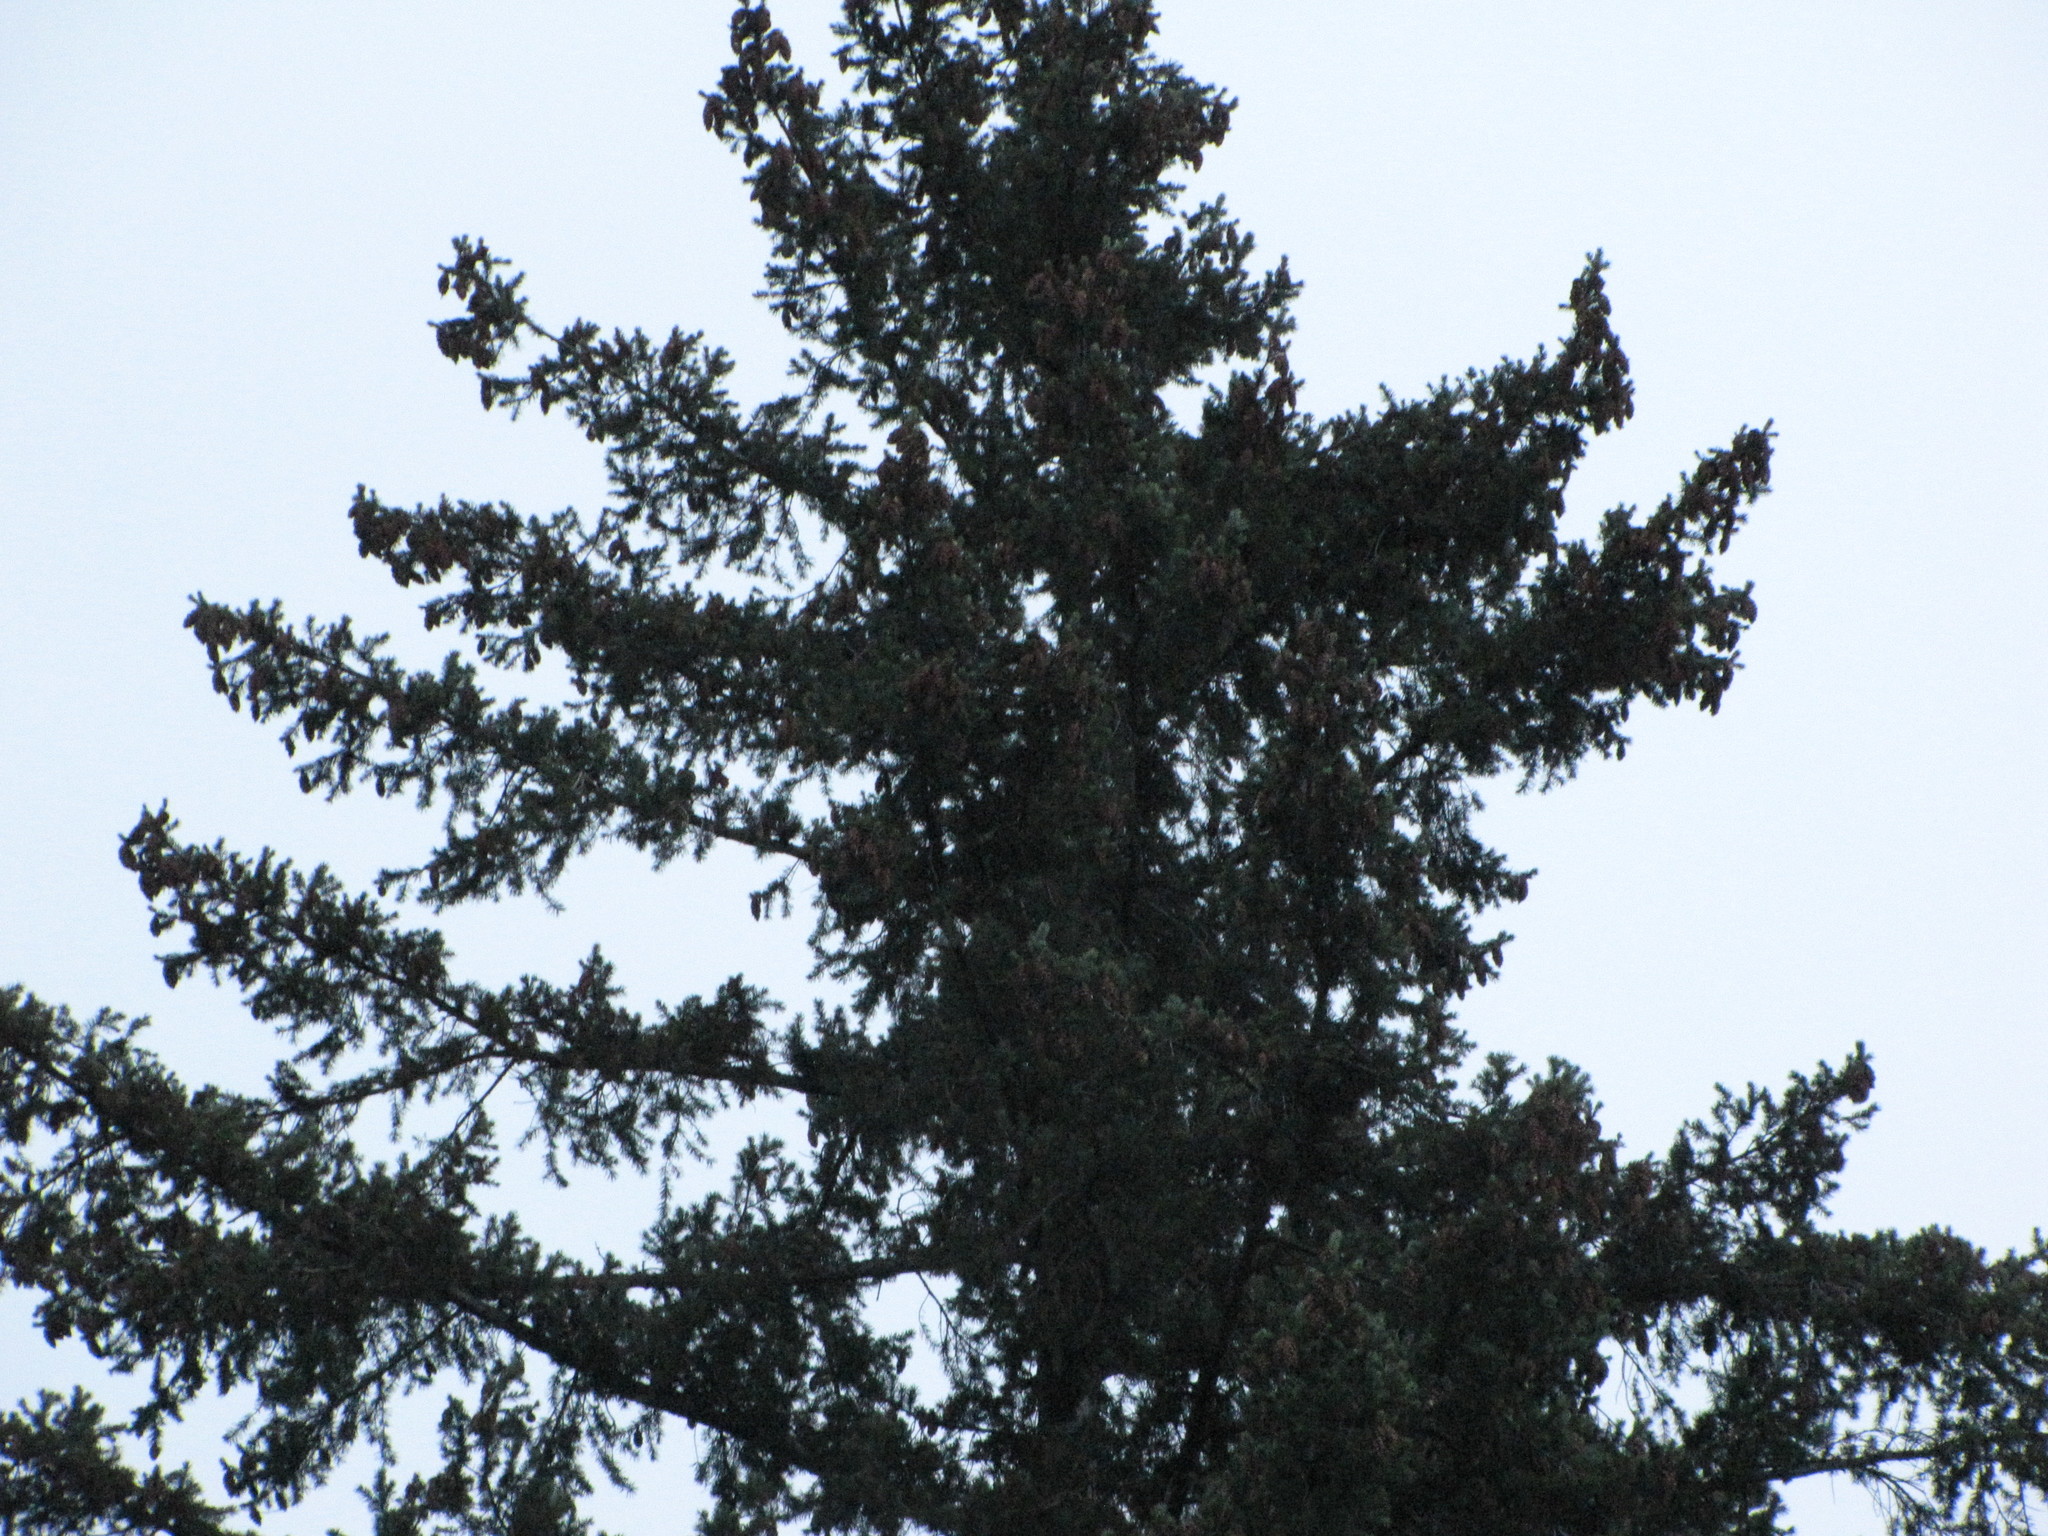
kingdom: Plantae
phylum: Tracheophyta
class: Pinopsida
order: Pinales
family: Pinaceae
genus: Pseudotsuga
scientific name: Pseudotsuga menziesii
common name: Douglas fir
